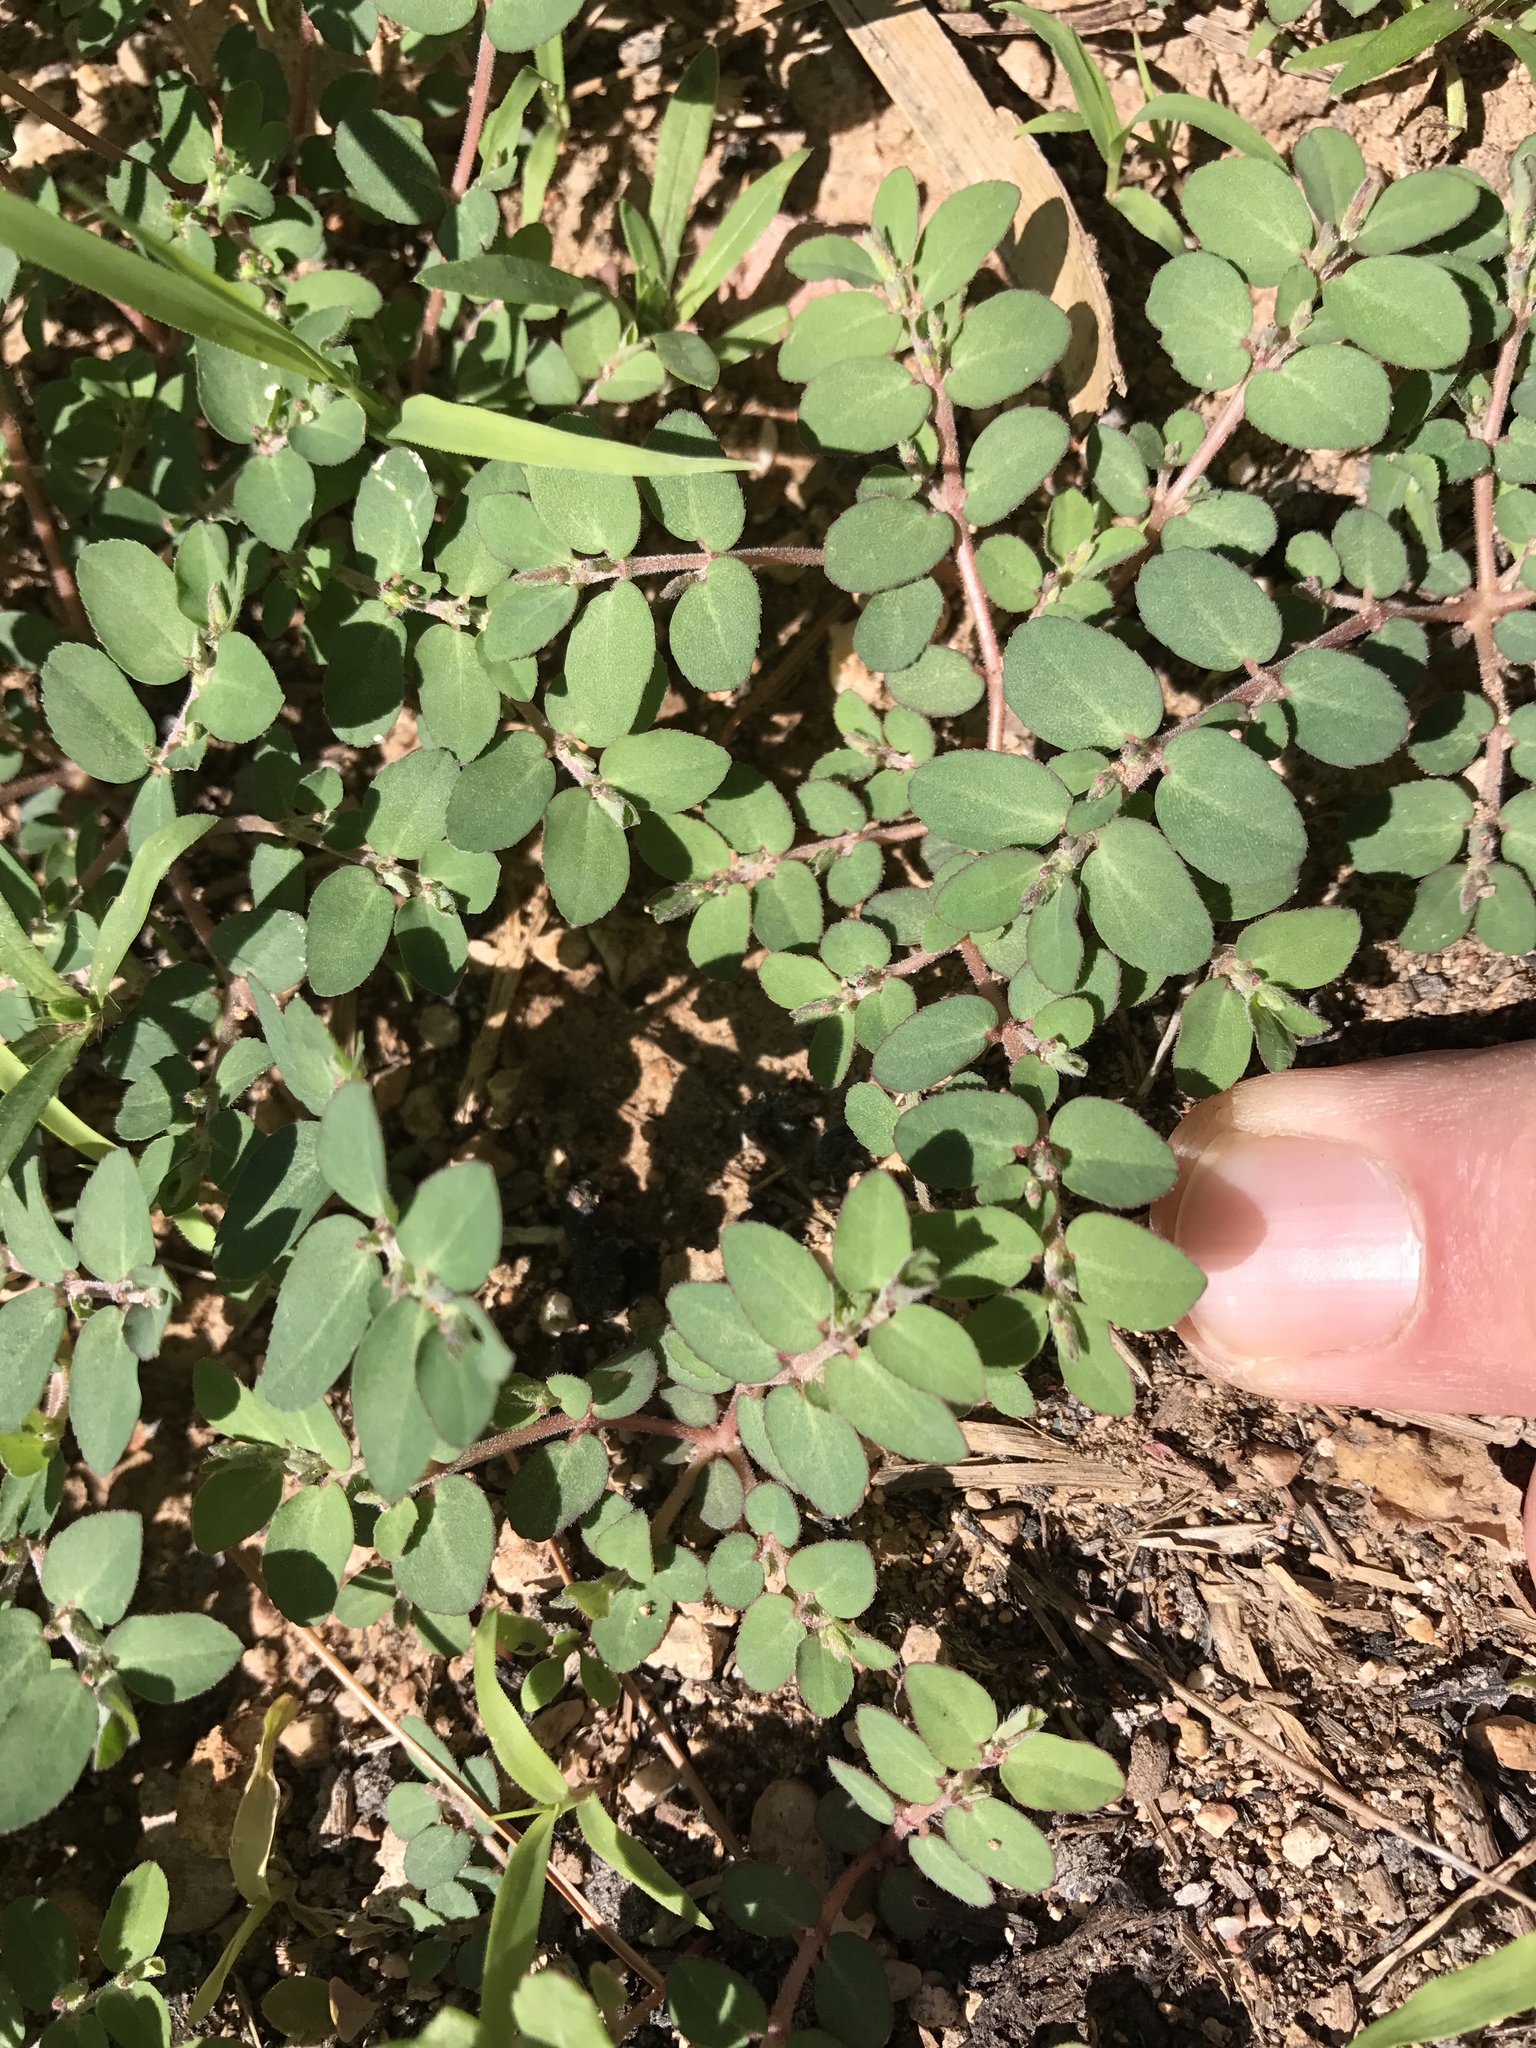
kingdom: Plantae
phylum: Tracheophyta
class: Magnoliopsida
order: Malpighiales
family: Euphorbiaceae
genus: Euphorbia
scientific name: Euphorbia prostrata
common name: Prostrate sandmat
